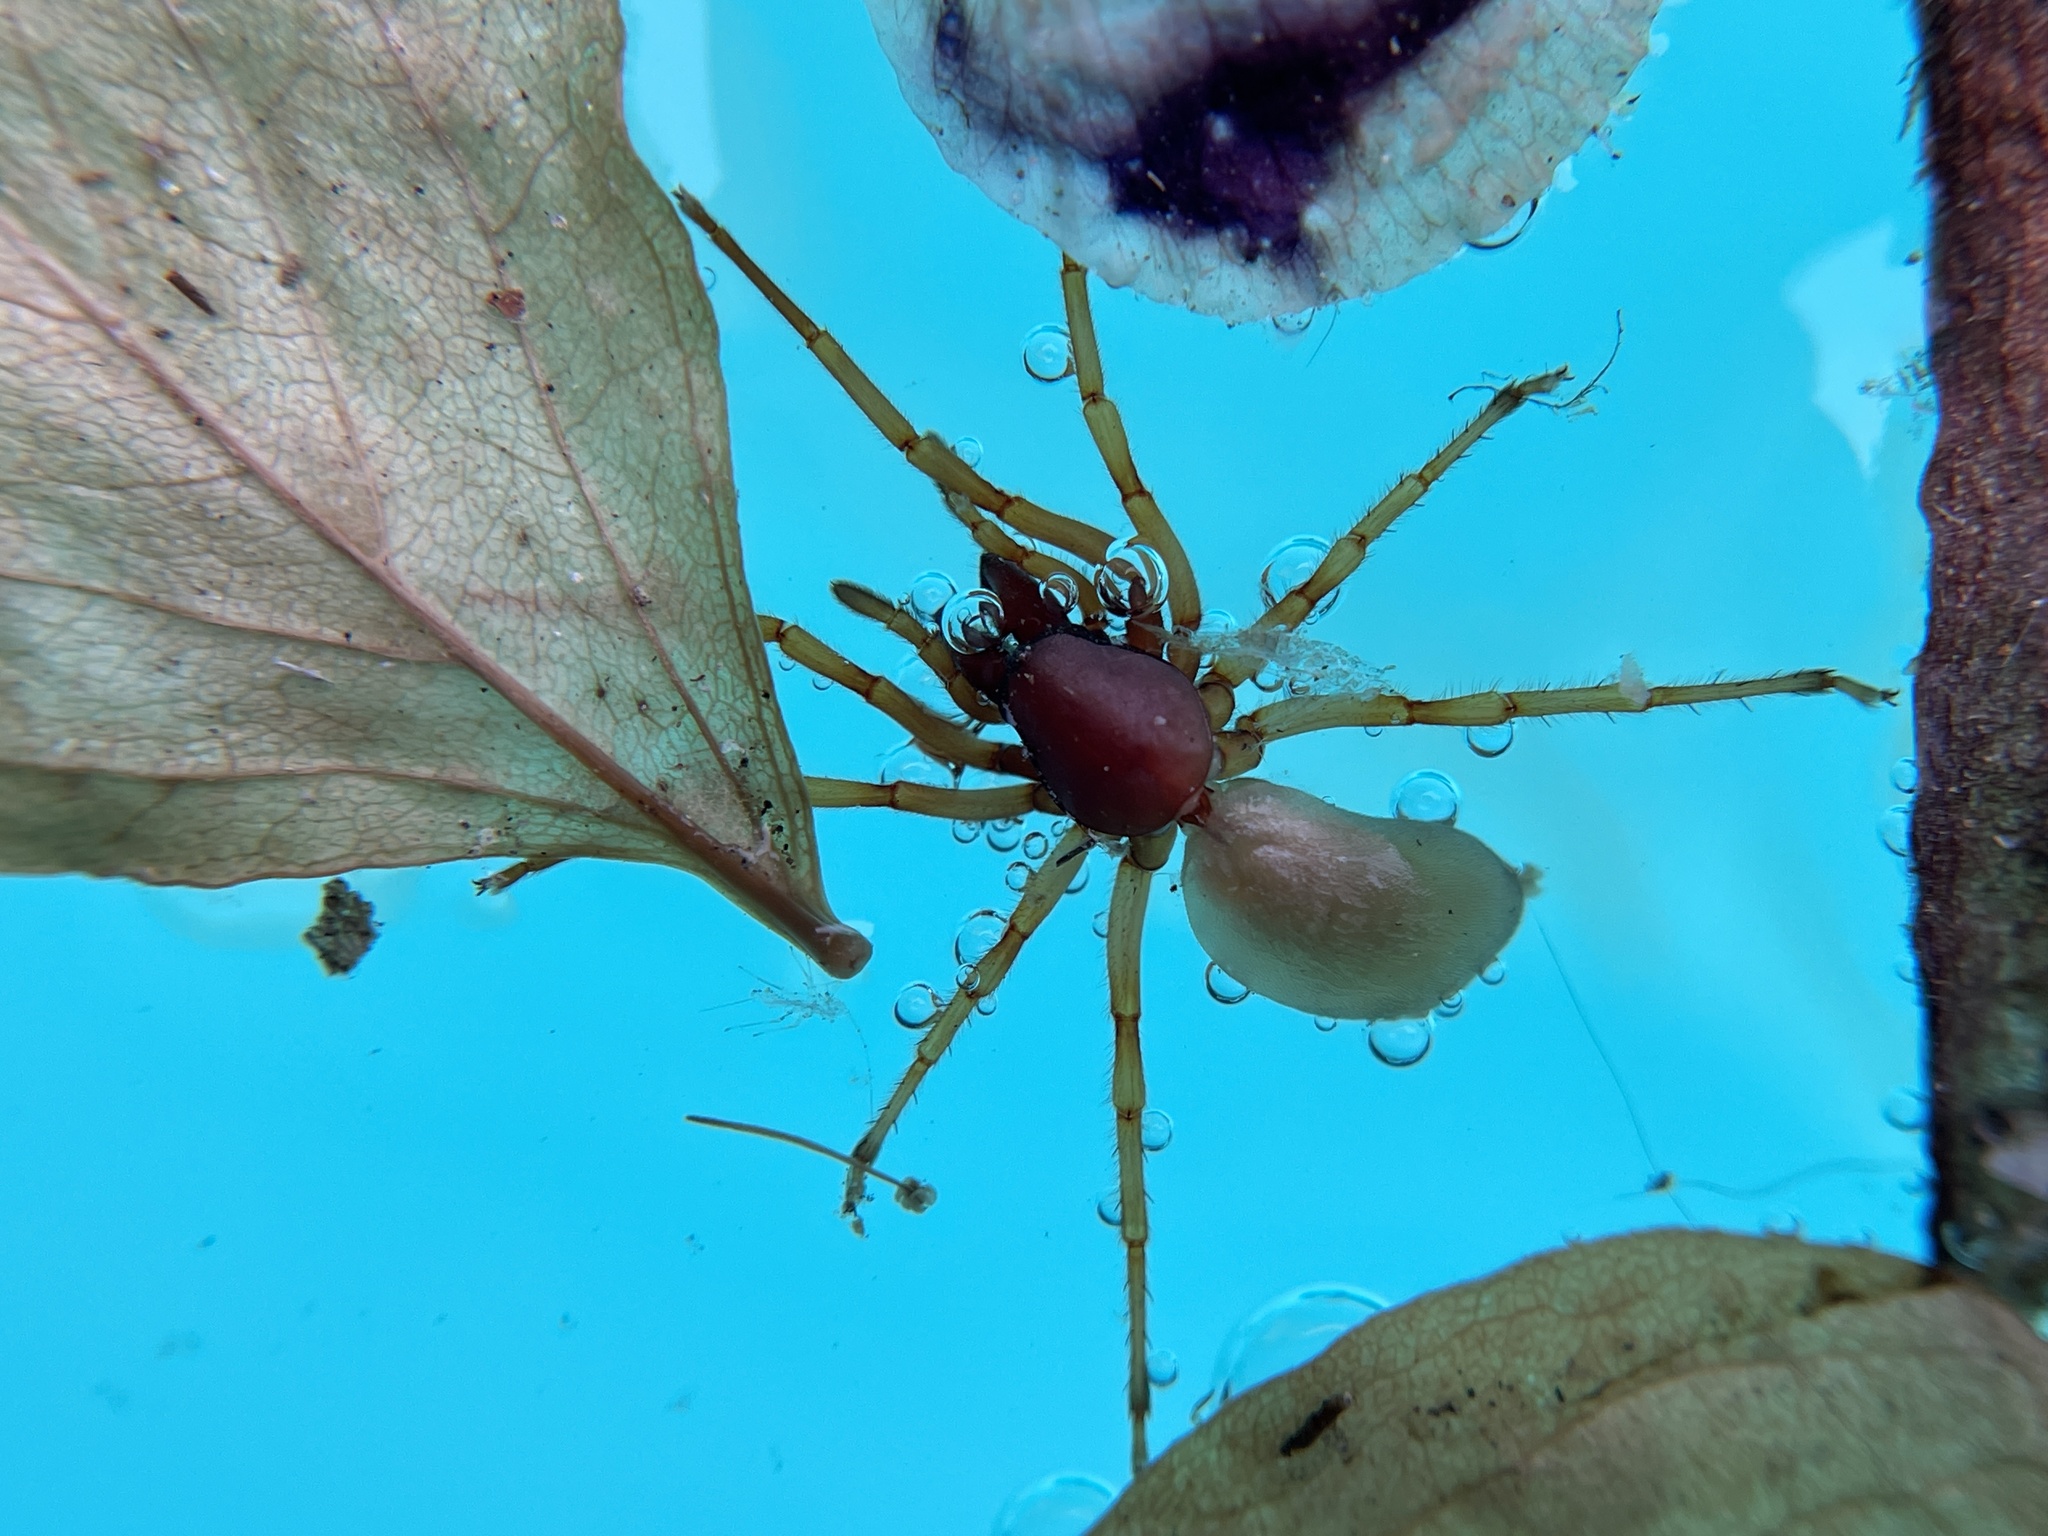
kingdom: Animalia
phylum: Arthropoda
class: Arachnida
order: Araneae
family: Dysderidae
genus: Dysdera
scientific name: Dysdera crocata
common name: Woodlouse spider
